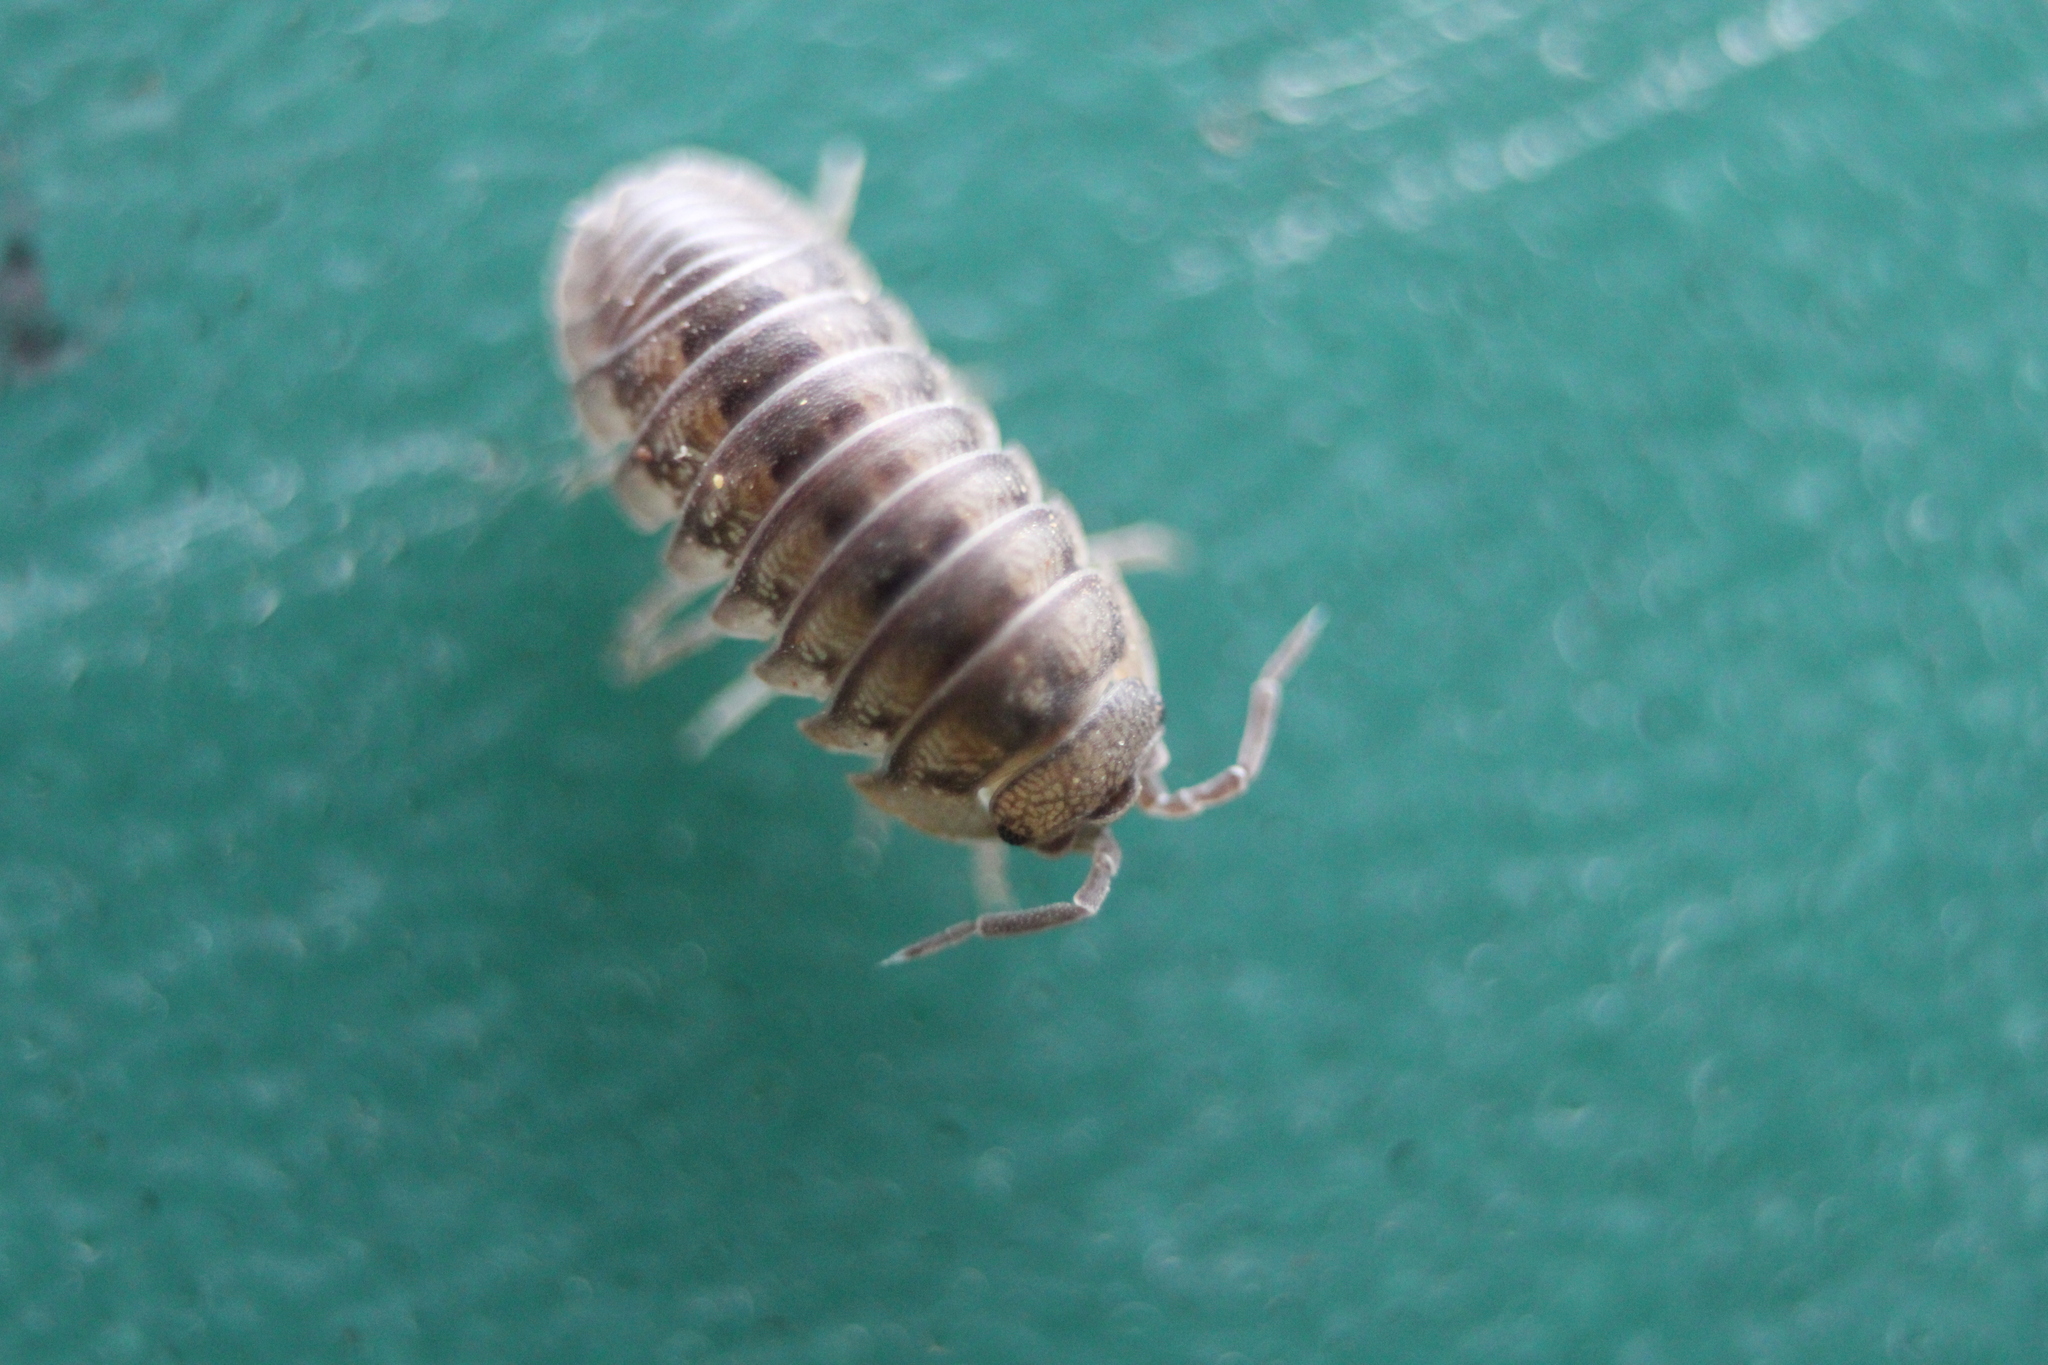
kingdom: Animalia
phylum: Arthropoda
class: Malacostraca
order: Isopoda
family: Armadillidiidae
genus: Armadillidium
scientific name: Armadillidium nasatum
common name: Isopod
